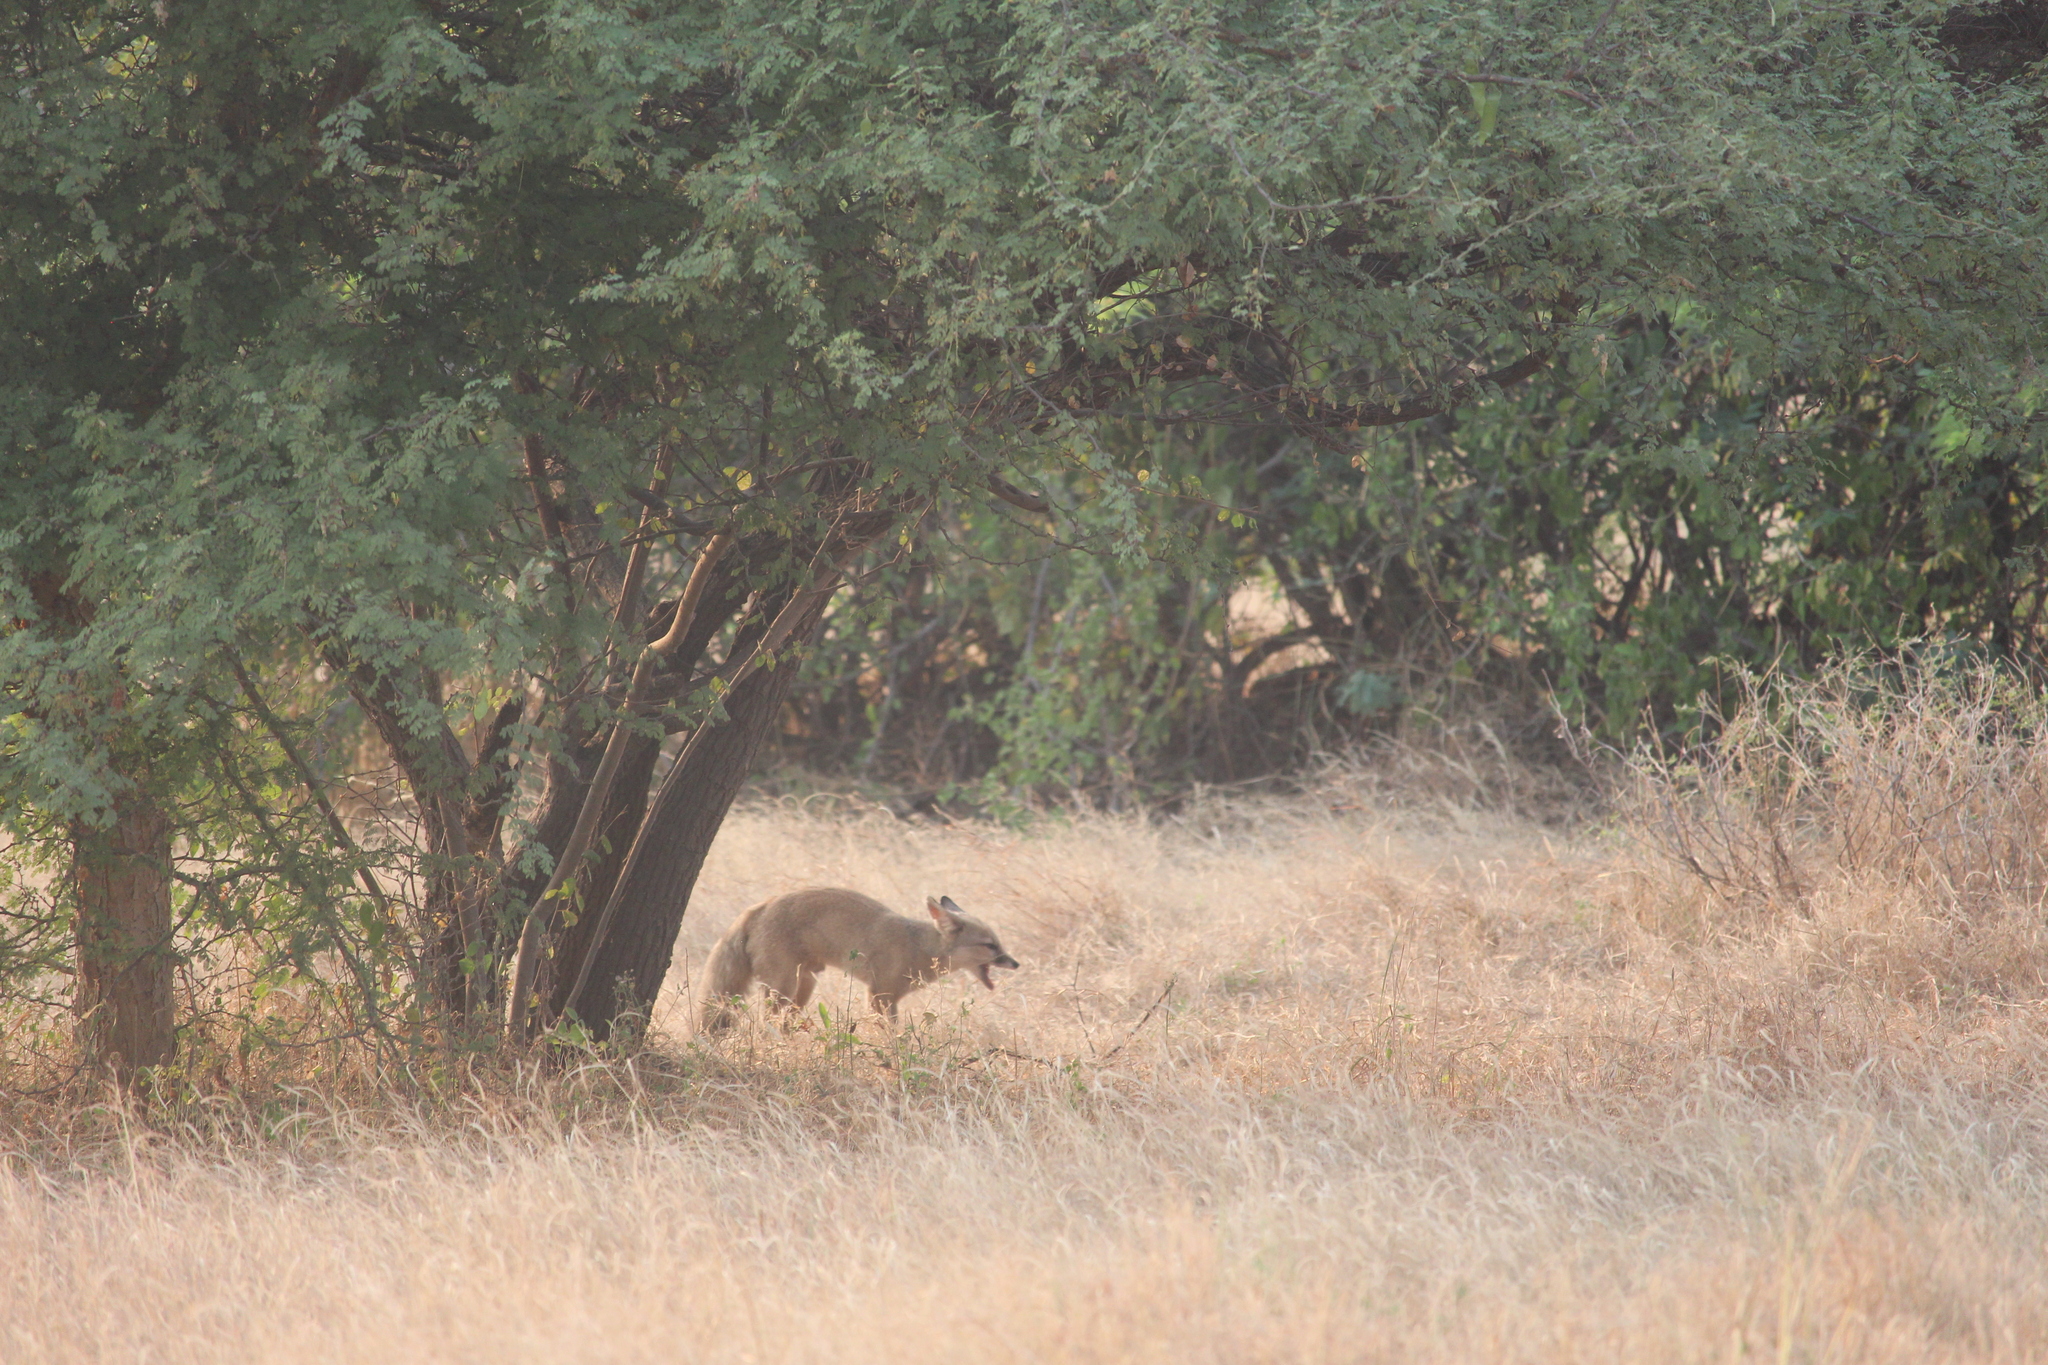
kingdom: Animalia
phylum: Chordata
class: Mammalia
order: Carnivora
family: Canidae
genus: Vulpes
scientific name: Vulpes bengalensis
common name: Bengal fox
